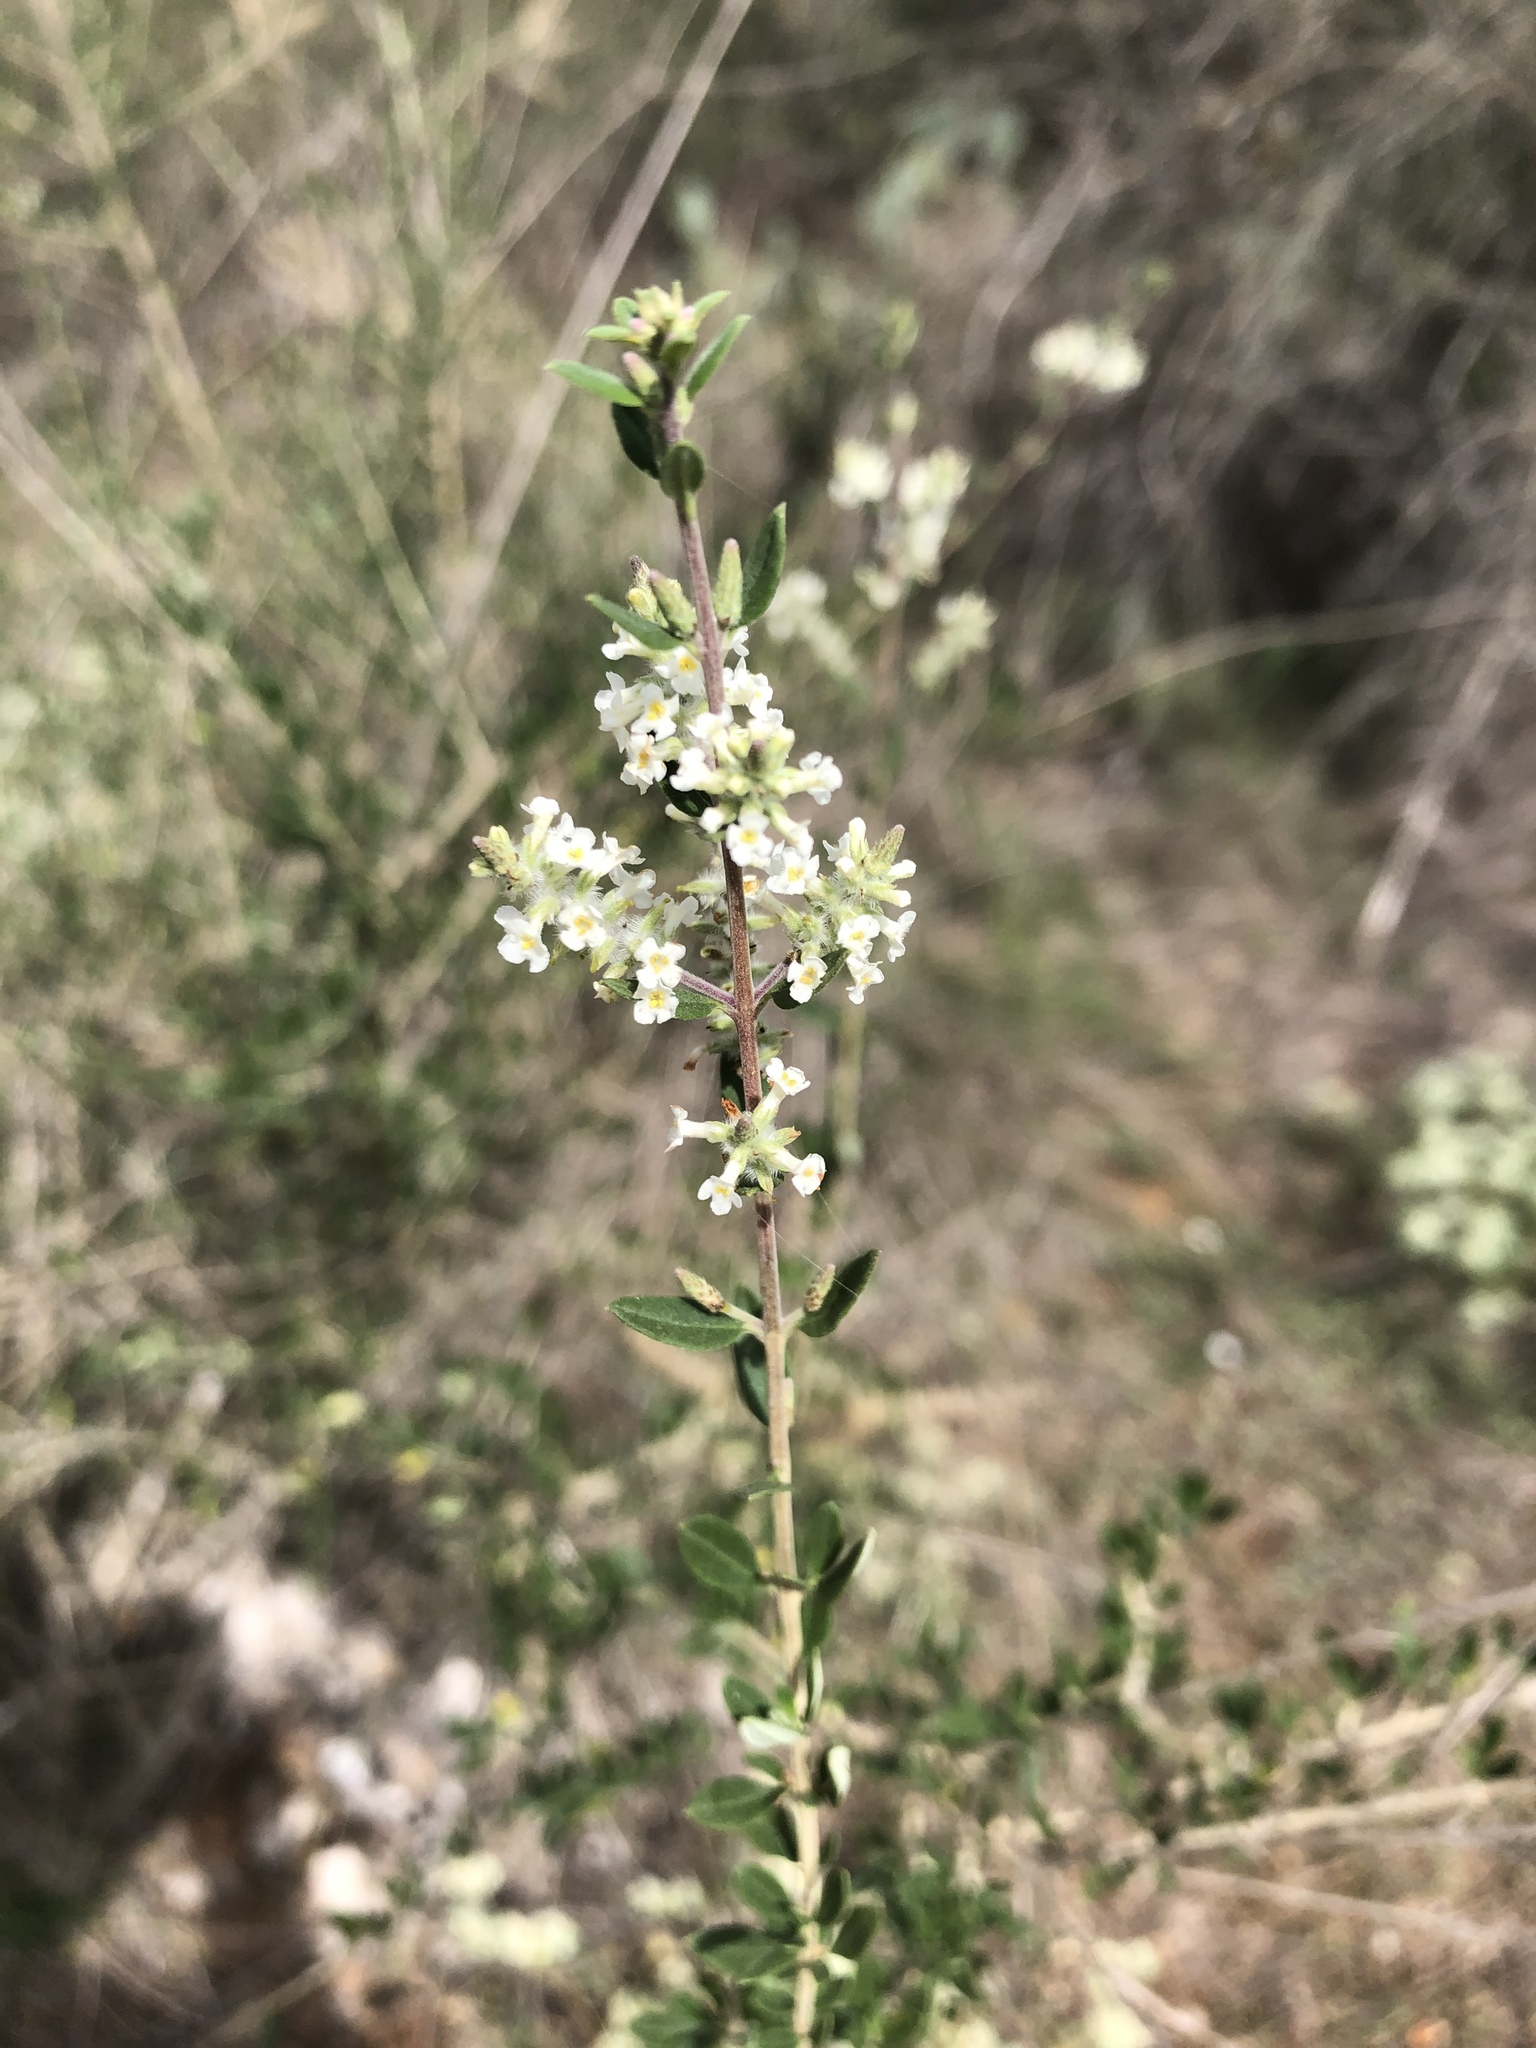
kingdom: Plantae
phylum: Tracheophyta
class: Magnoliopsida
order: Lamiales
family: Verbenaceae
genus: Aloysia
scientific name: Aloysia gratissima
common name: Common bee-brush
